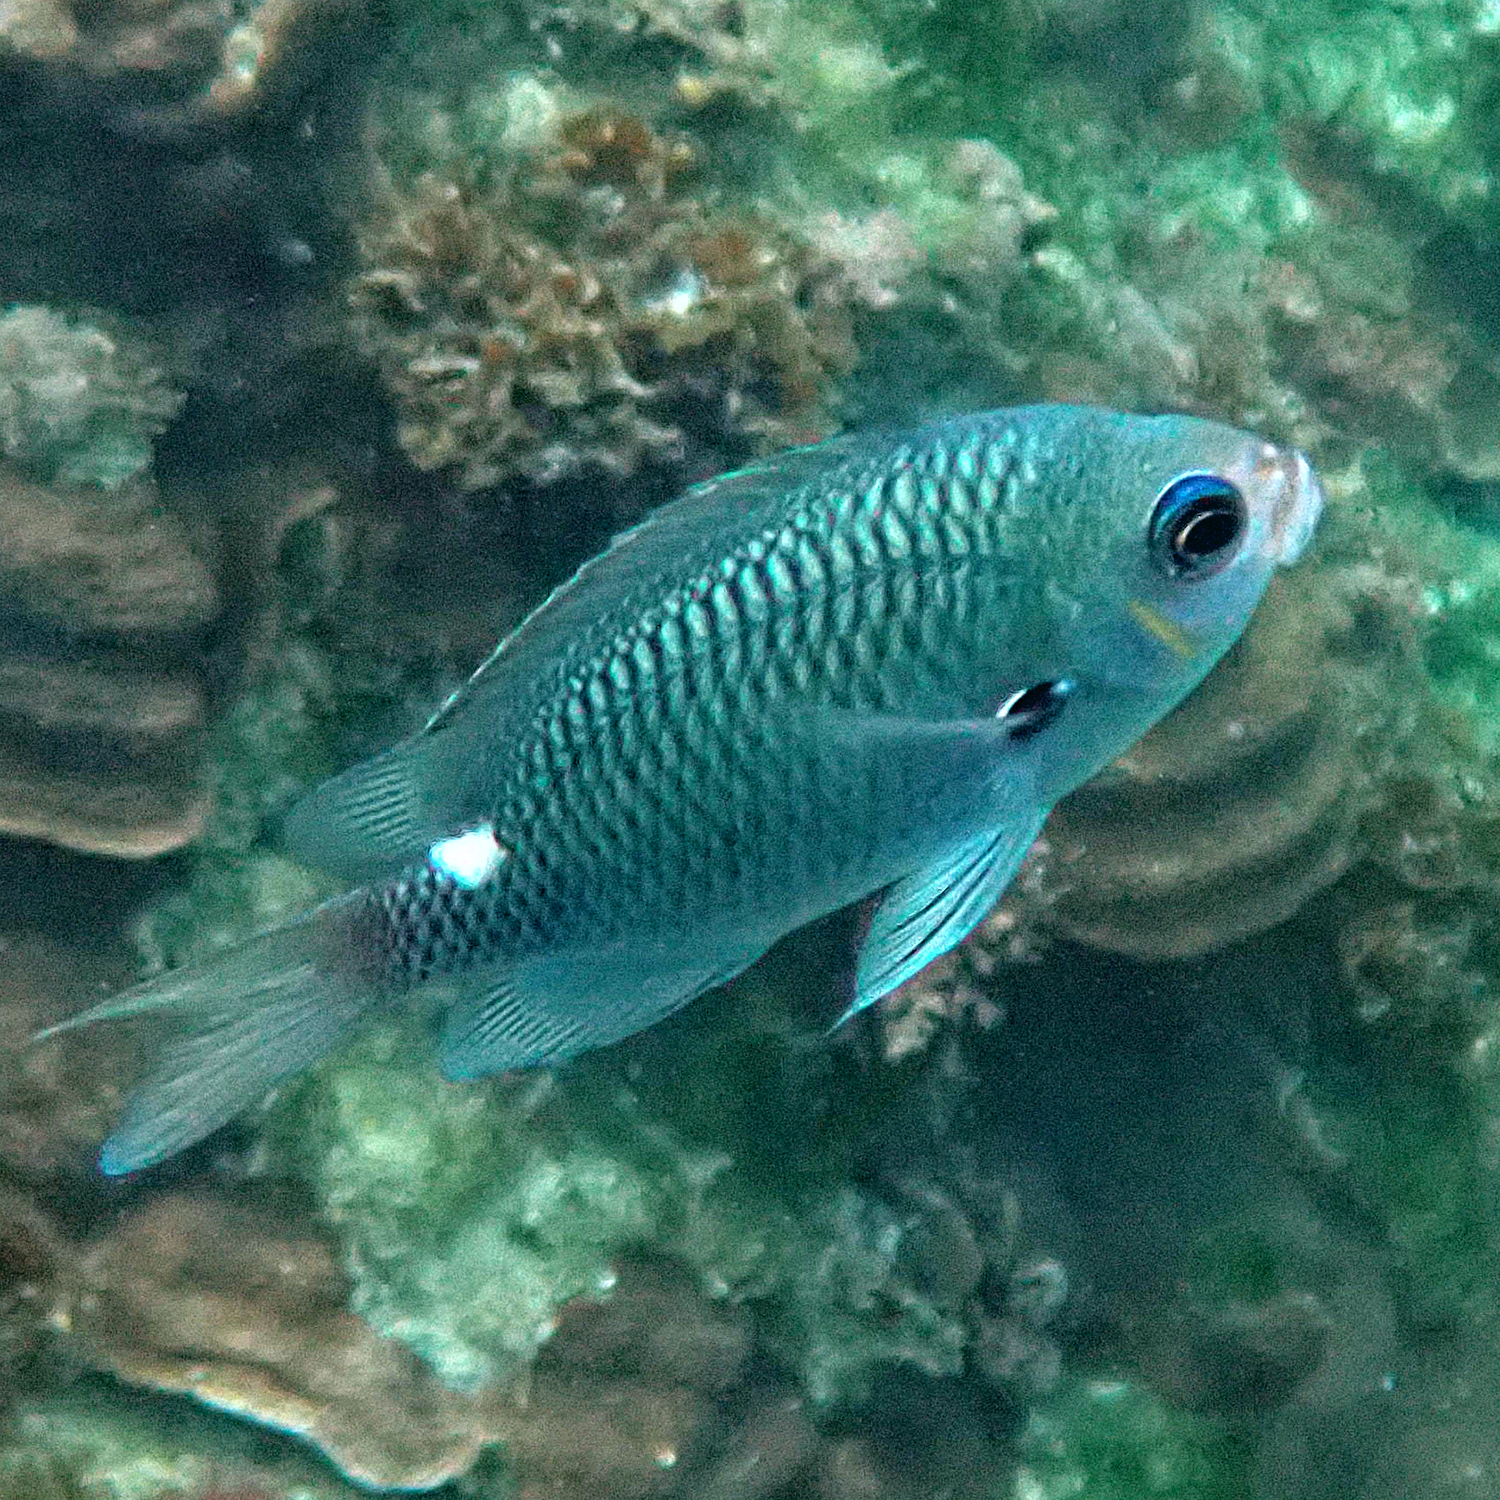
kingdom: Animalia
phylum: Chordata
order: Perciformes
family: Pomacentridae
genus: Chromis
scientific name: Chromis hypsilepis
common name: Brown puller
